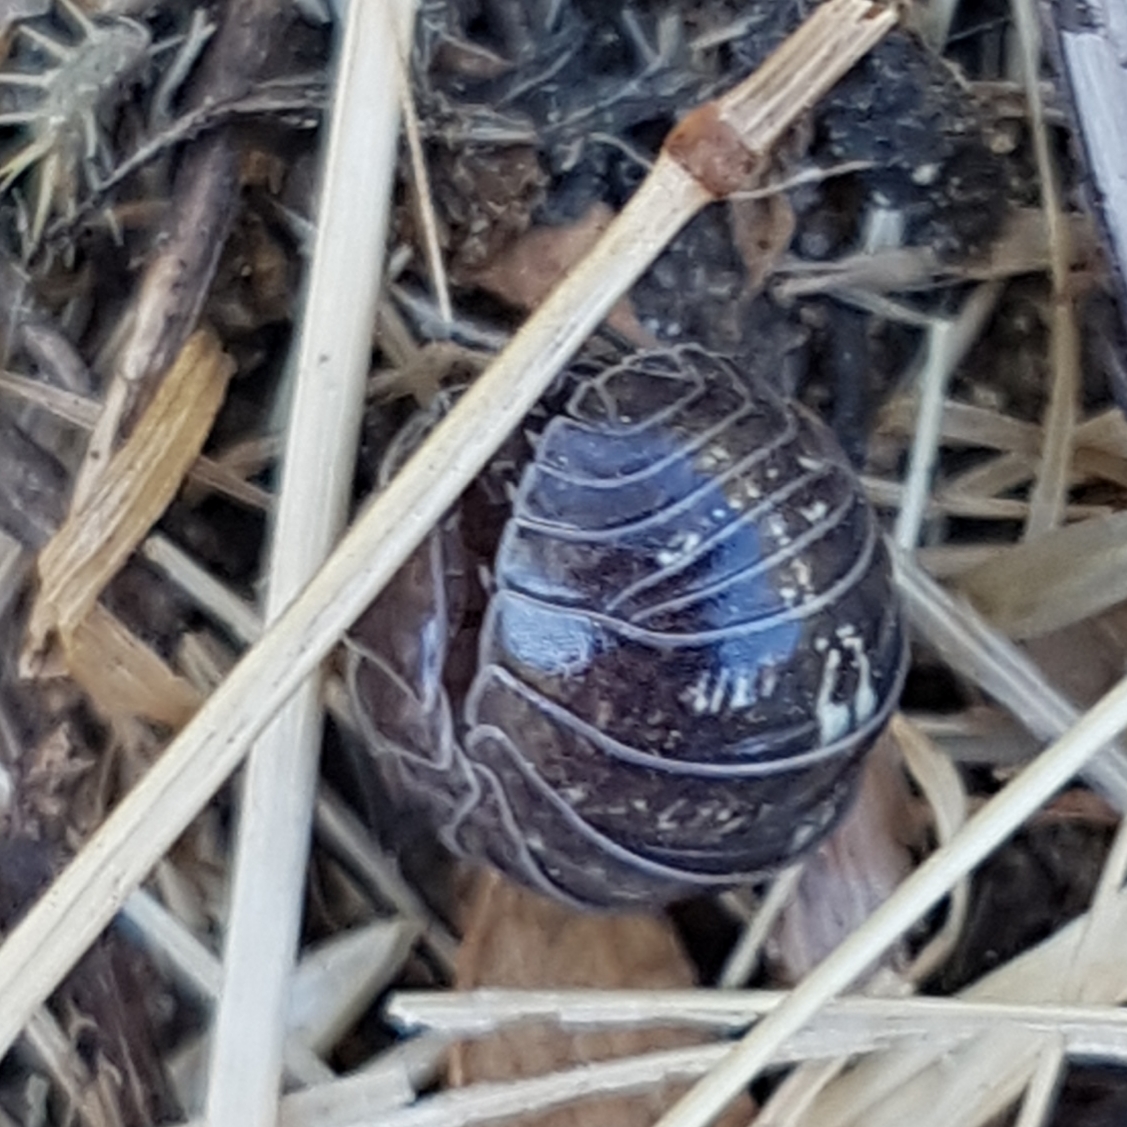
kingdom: Animalia
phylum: Arthropoda
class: Malacostraca
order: Isopoda
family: Armadillidiidae
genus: Armadillidium
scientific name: Armadillidium vulgare
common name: Common pill woodlouse
